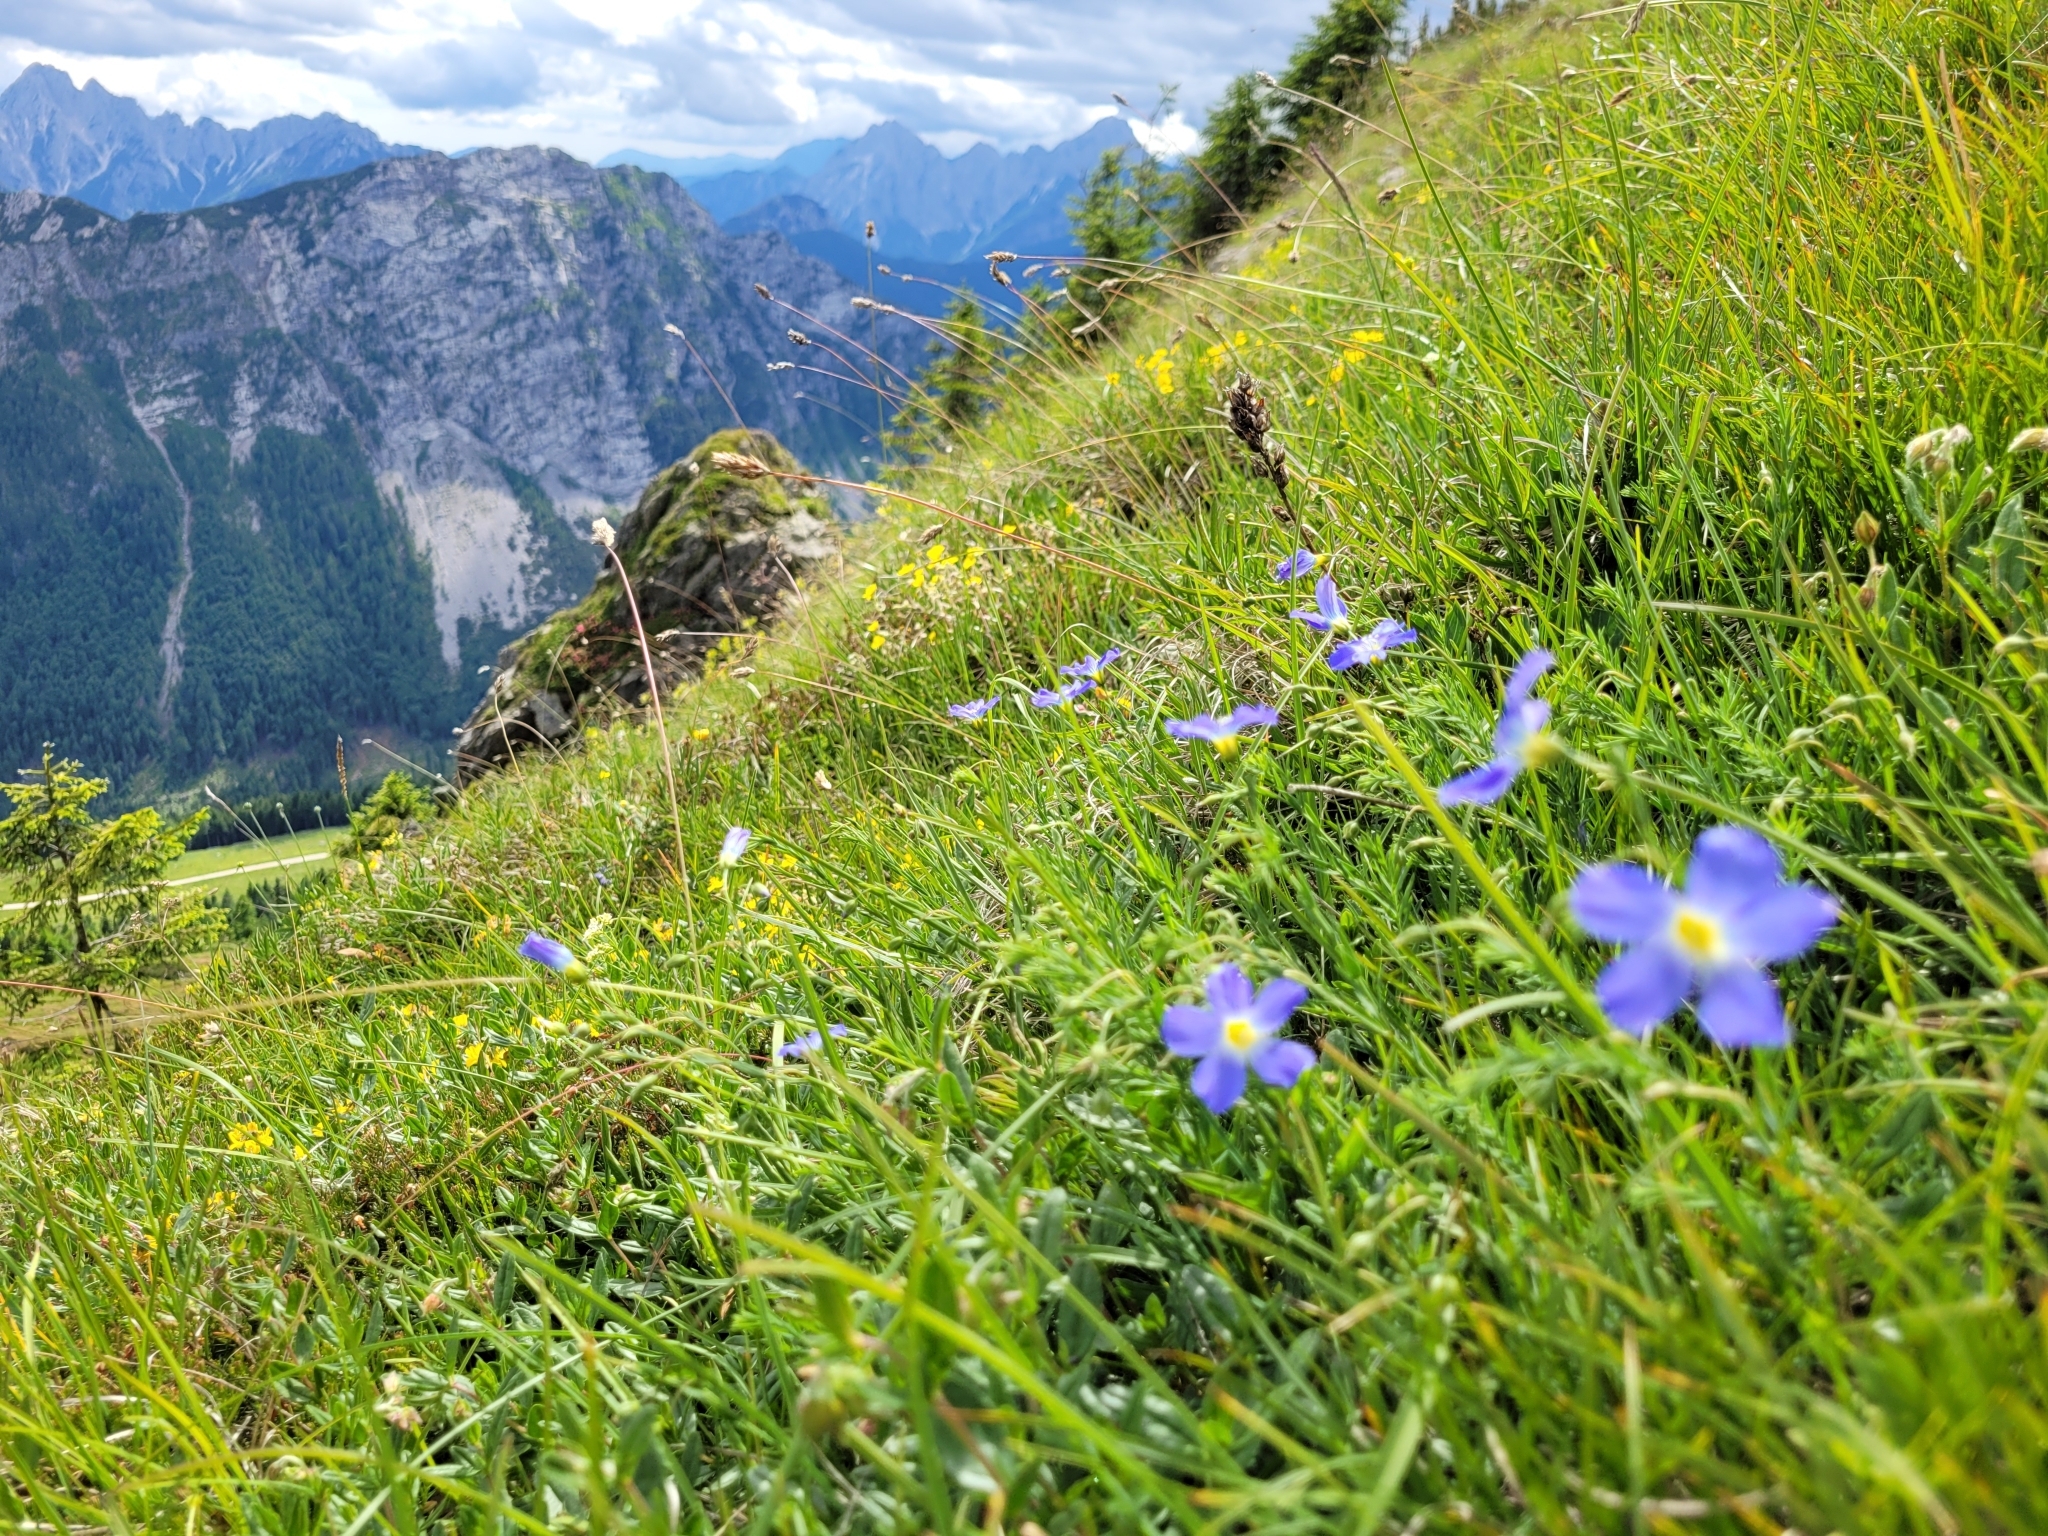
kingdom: Plantae
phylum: Tracheophyta
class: Magnoliopsida
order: Malpighiales
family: Linaceae
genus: Linum
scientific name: Linum alpinum
